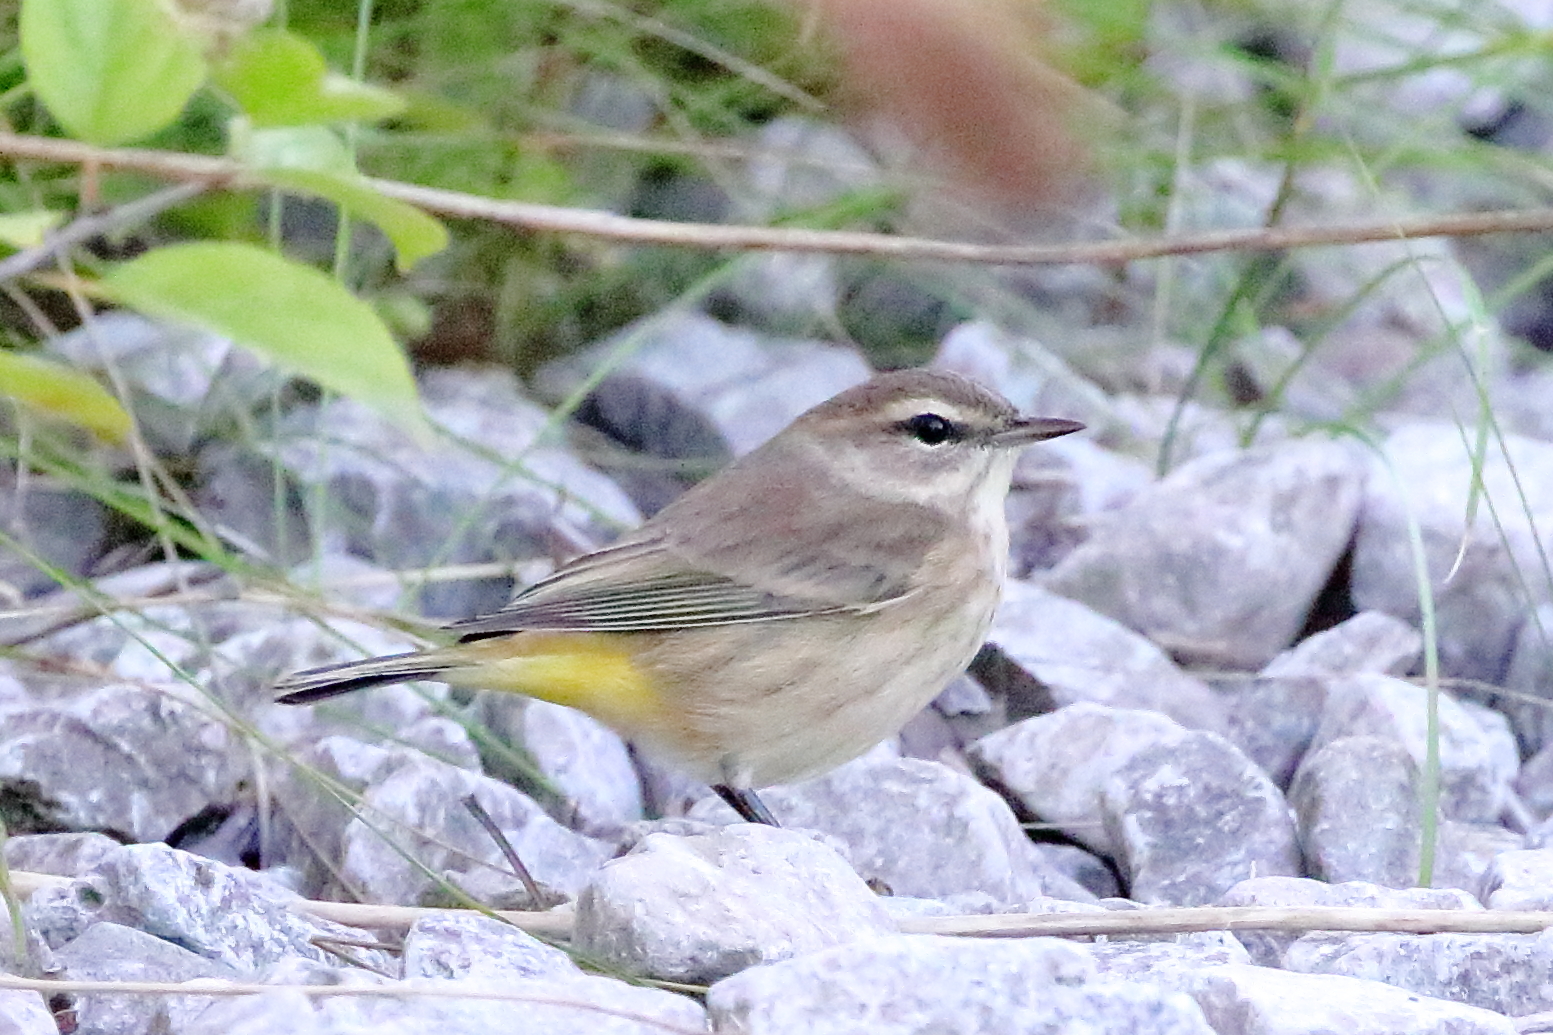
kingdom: Animalia
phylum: Chordata
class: Aves
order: Passeriformes
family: Parulidae
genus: Setophaga
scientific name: Setophaga palmarum
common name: Palm warbler
